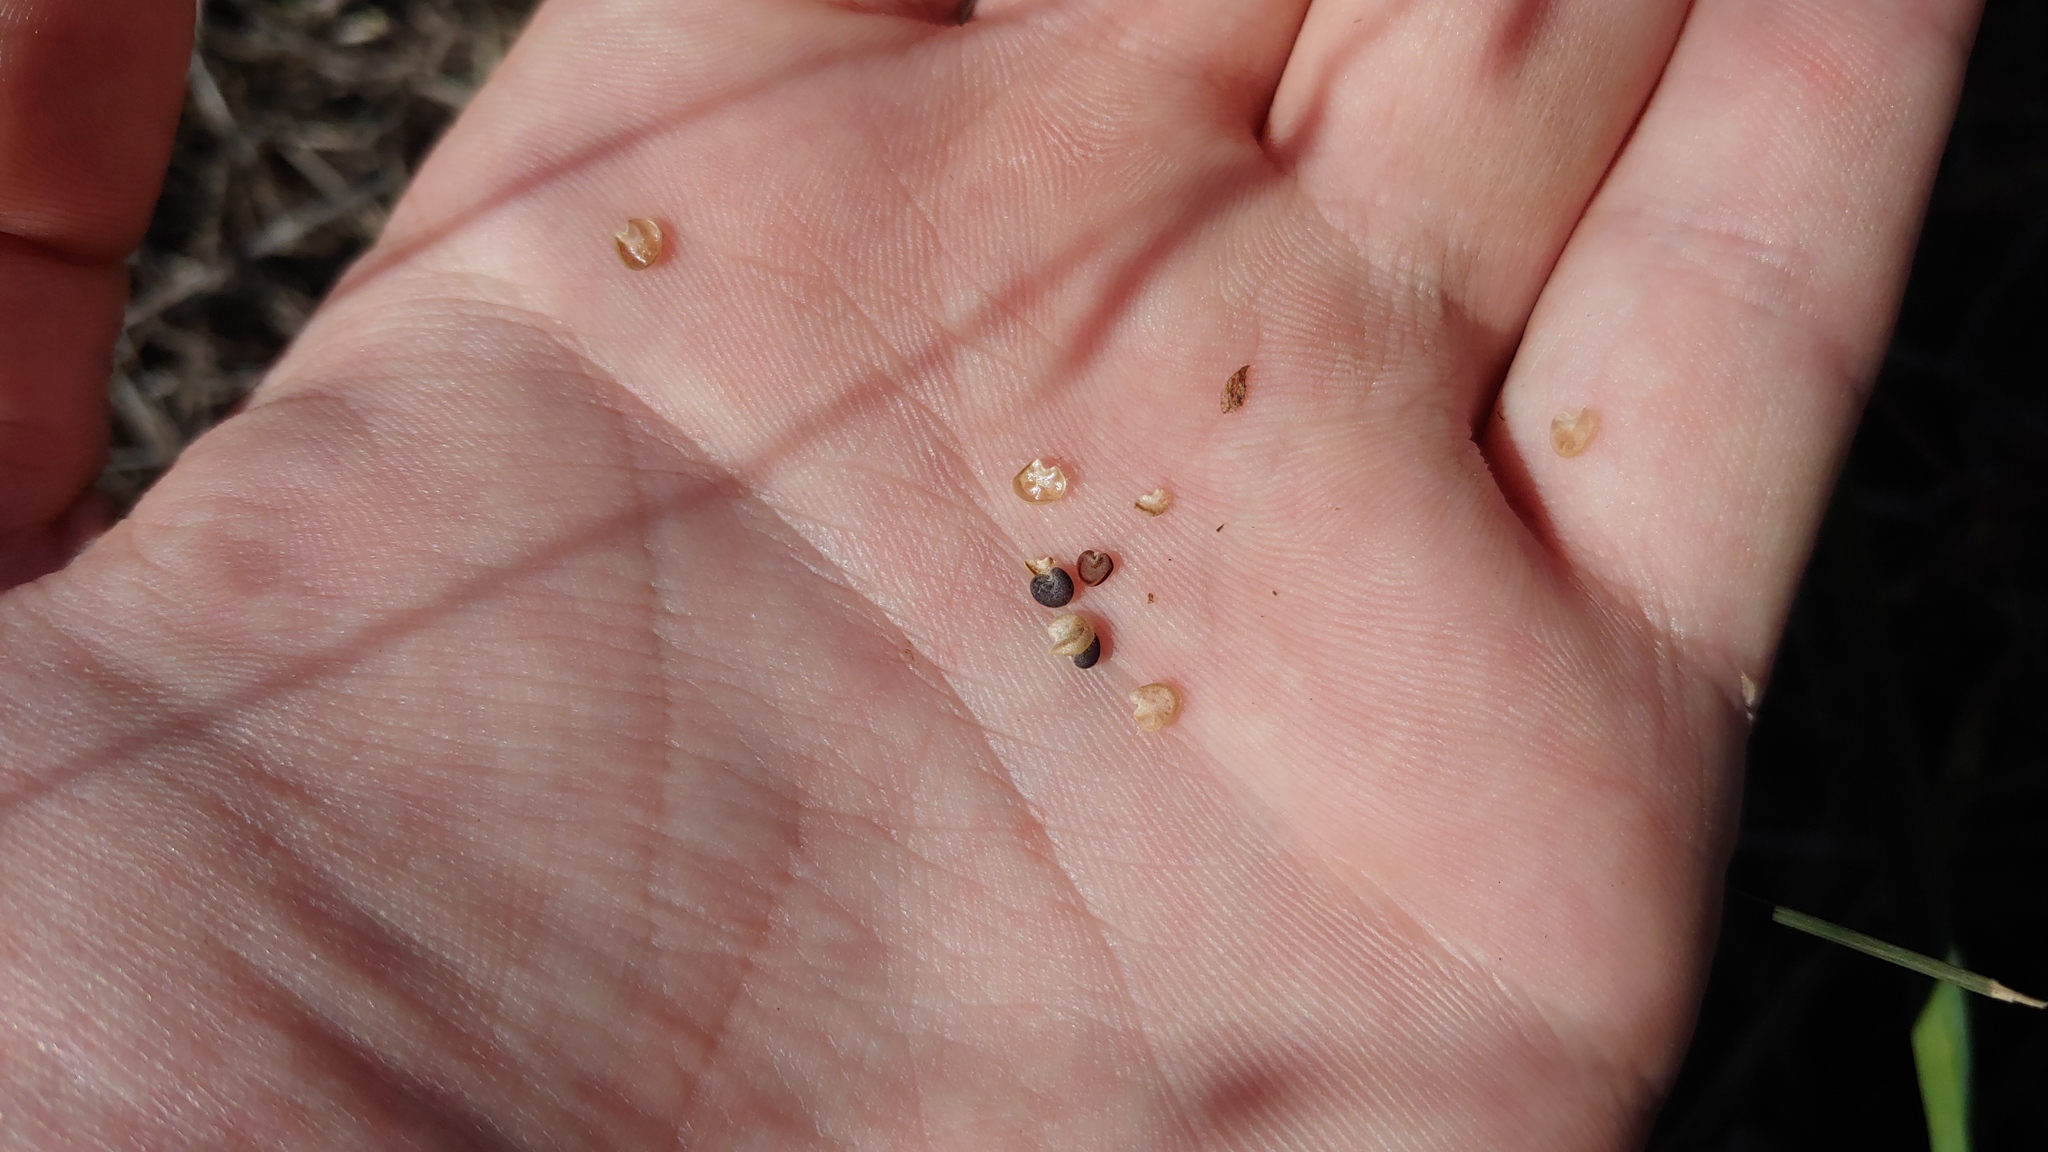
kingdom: Plantae
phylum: Tracheophyta
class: Magnoliopsida
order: Malvales
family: Malvaceae
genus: Malvastrum
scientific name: Malvastrum hispidum
